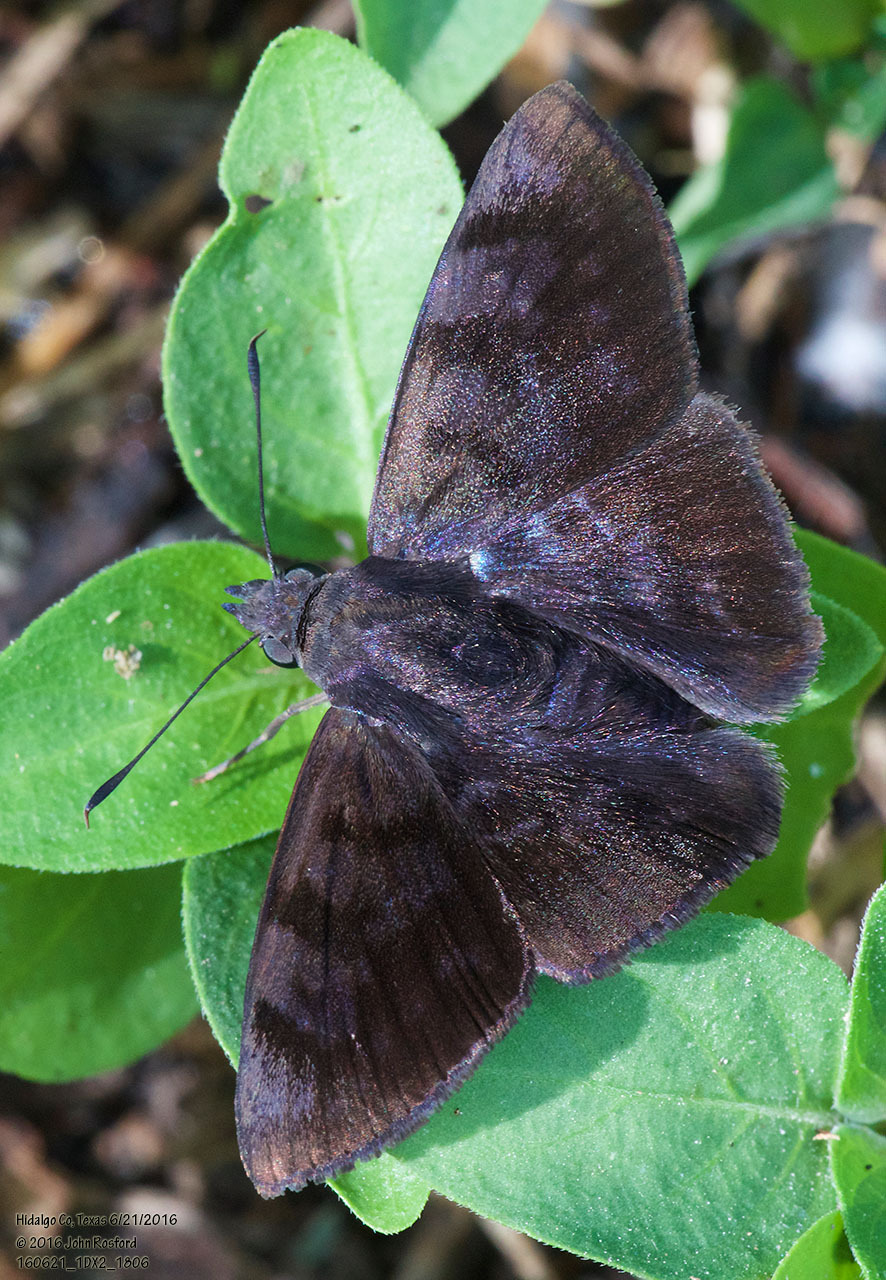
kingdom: Animalia
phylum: Arthropoda
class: Insecta
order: Lepidoptera
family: Hesperiidae
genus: Pellicia
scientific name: Pellicia costimacula
